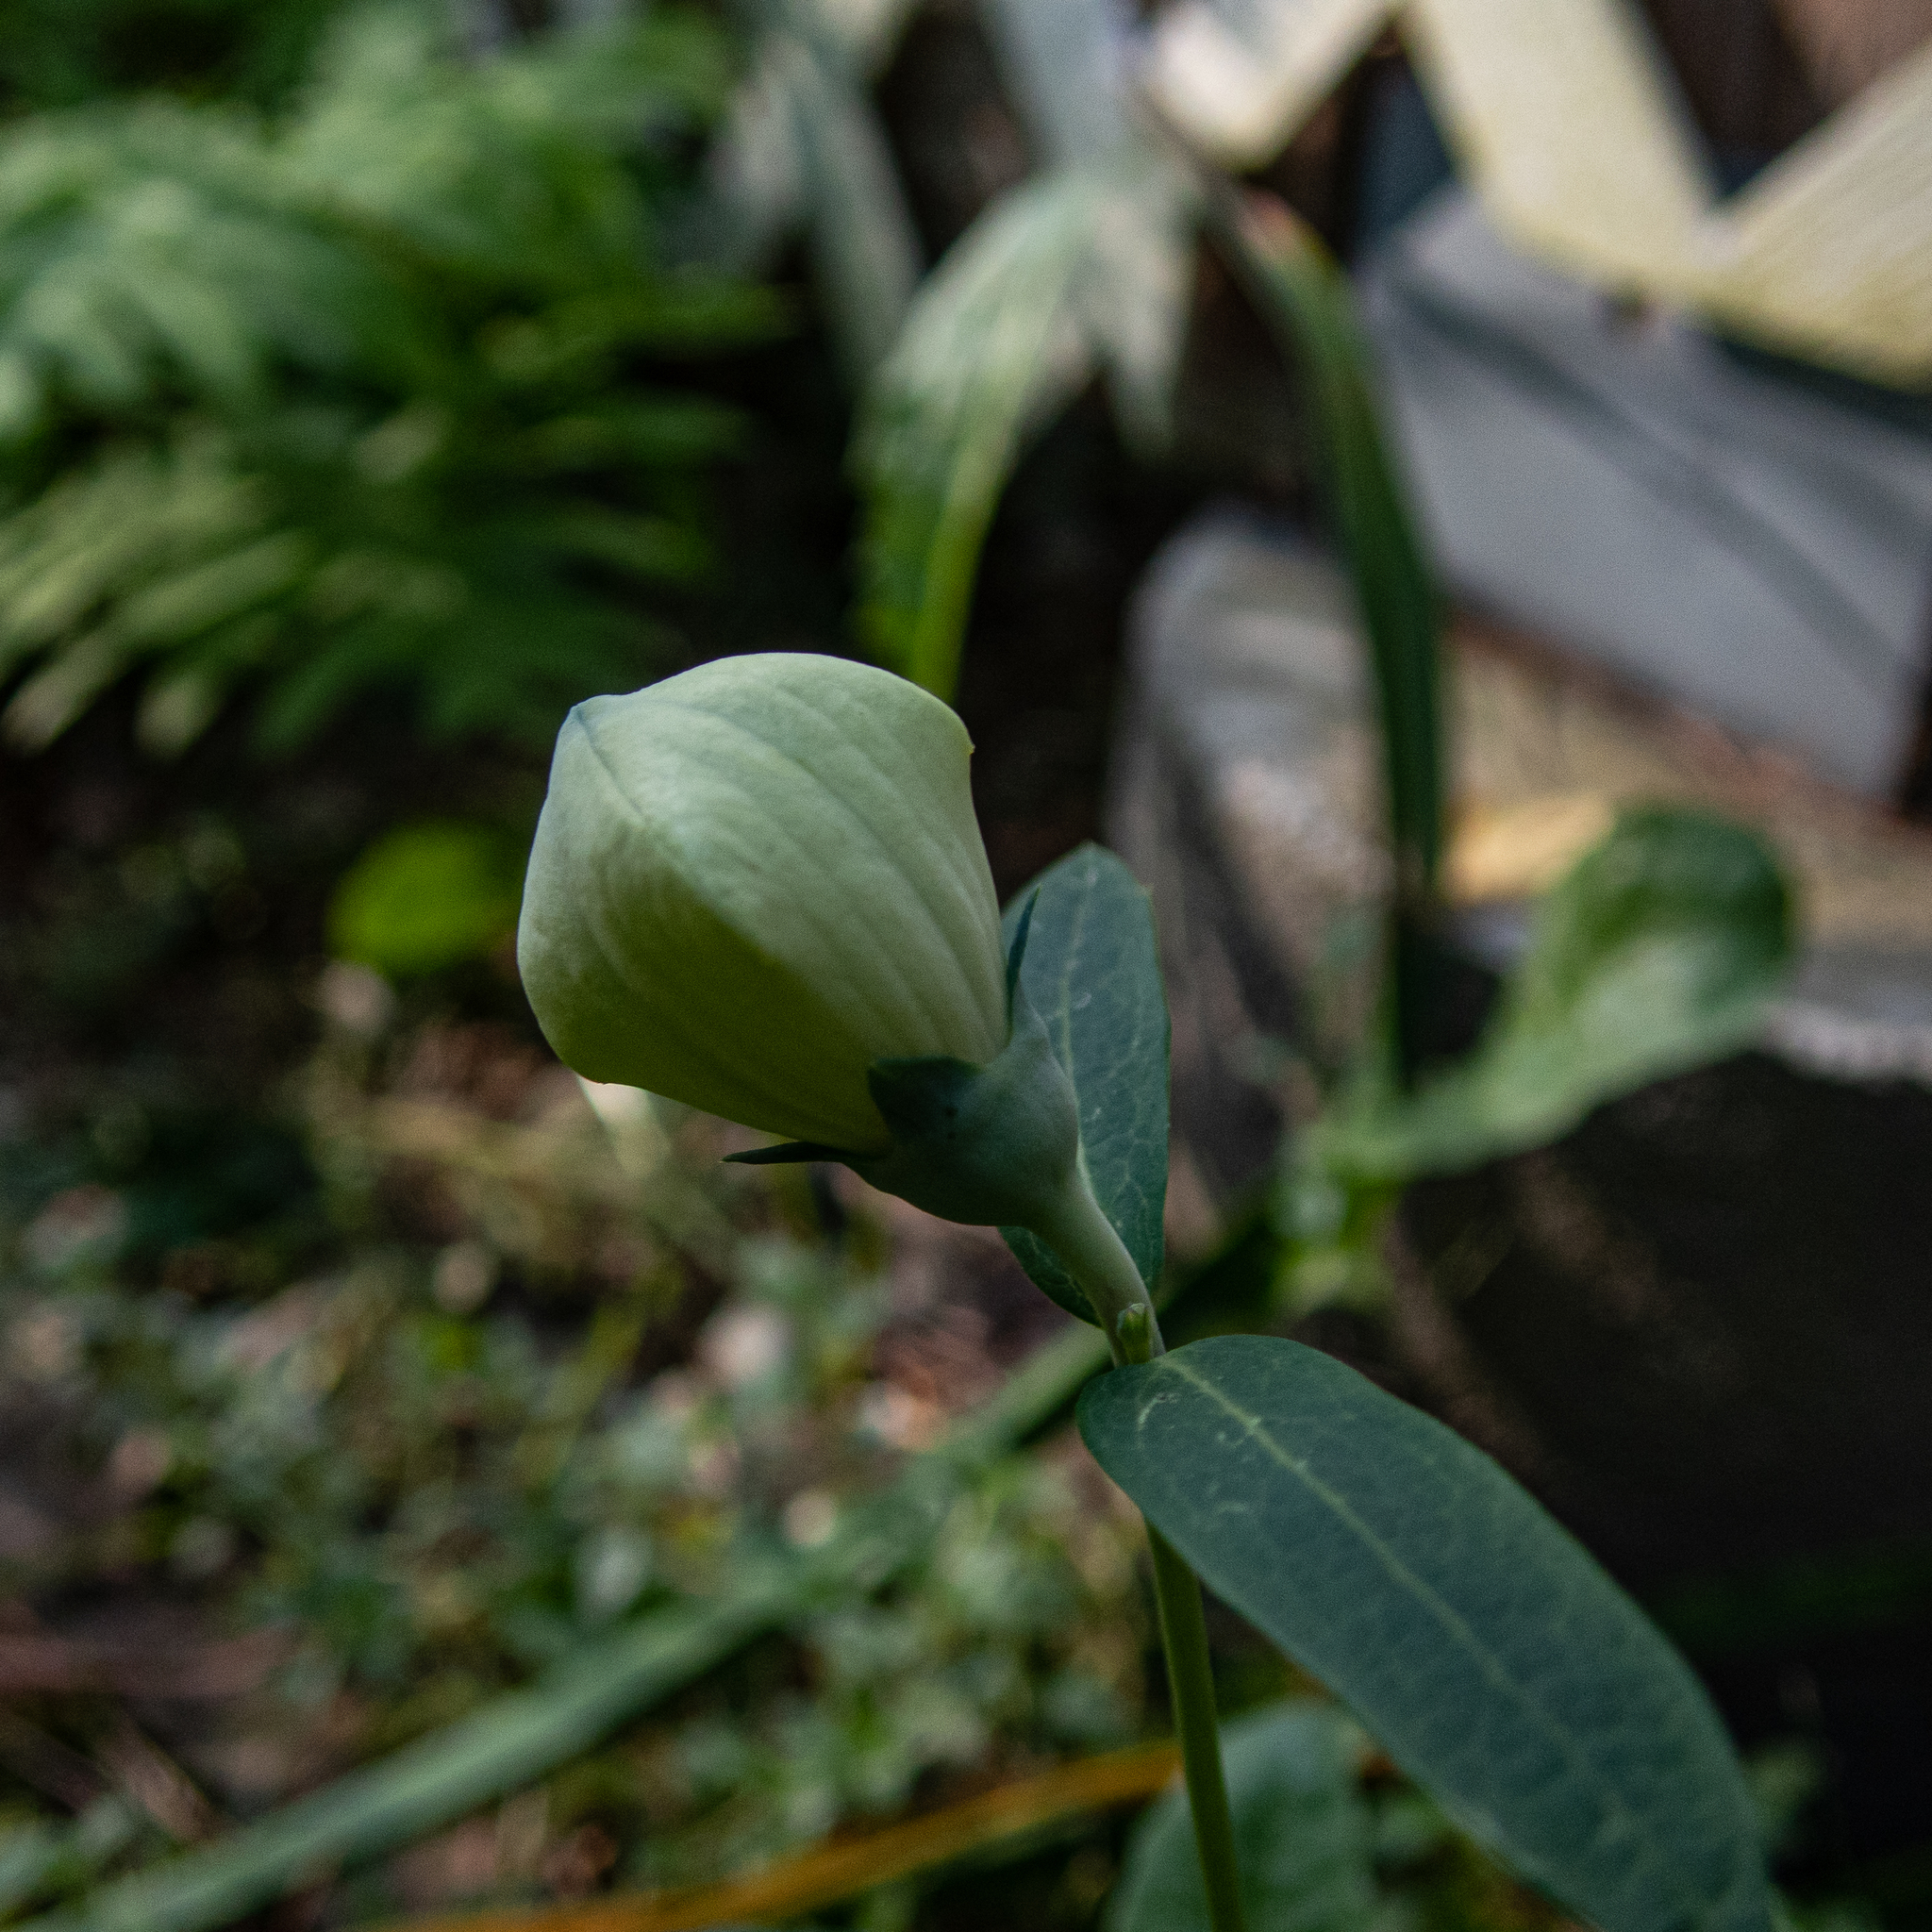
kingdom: Plantae
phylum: Tracheophyta
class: Magnoliopsida
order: Asterales
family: Campanulaceae
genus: Platycodon
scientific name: Platycodon grandiflorus
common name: Balloon-flower
